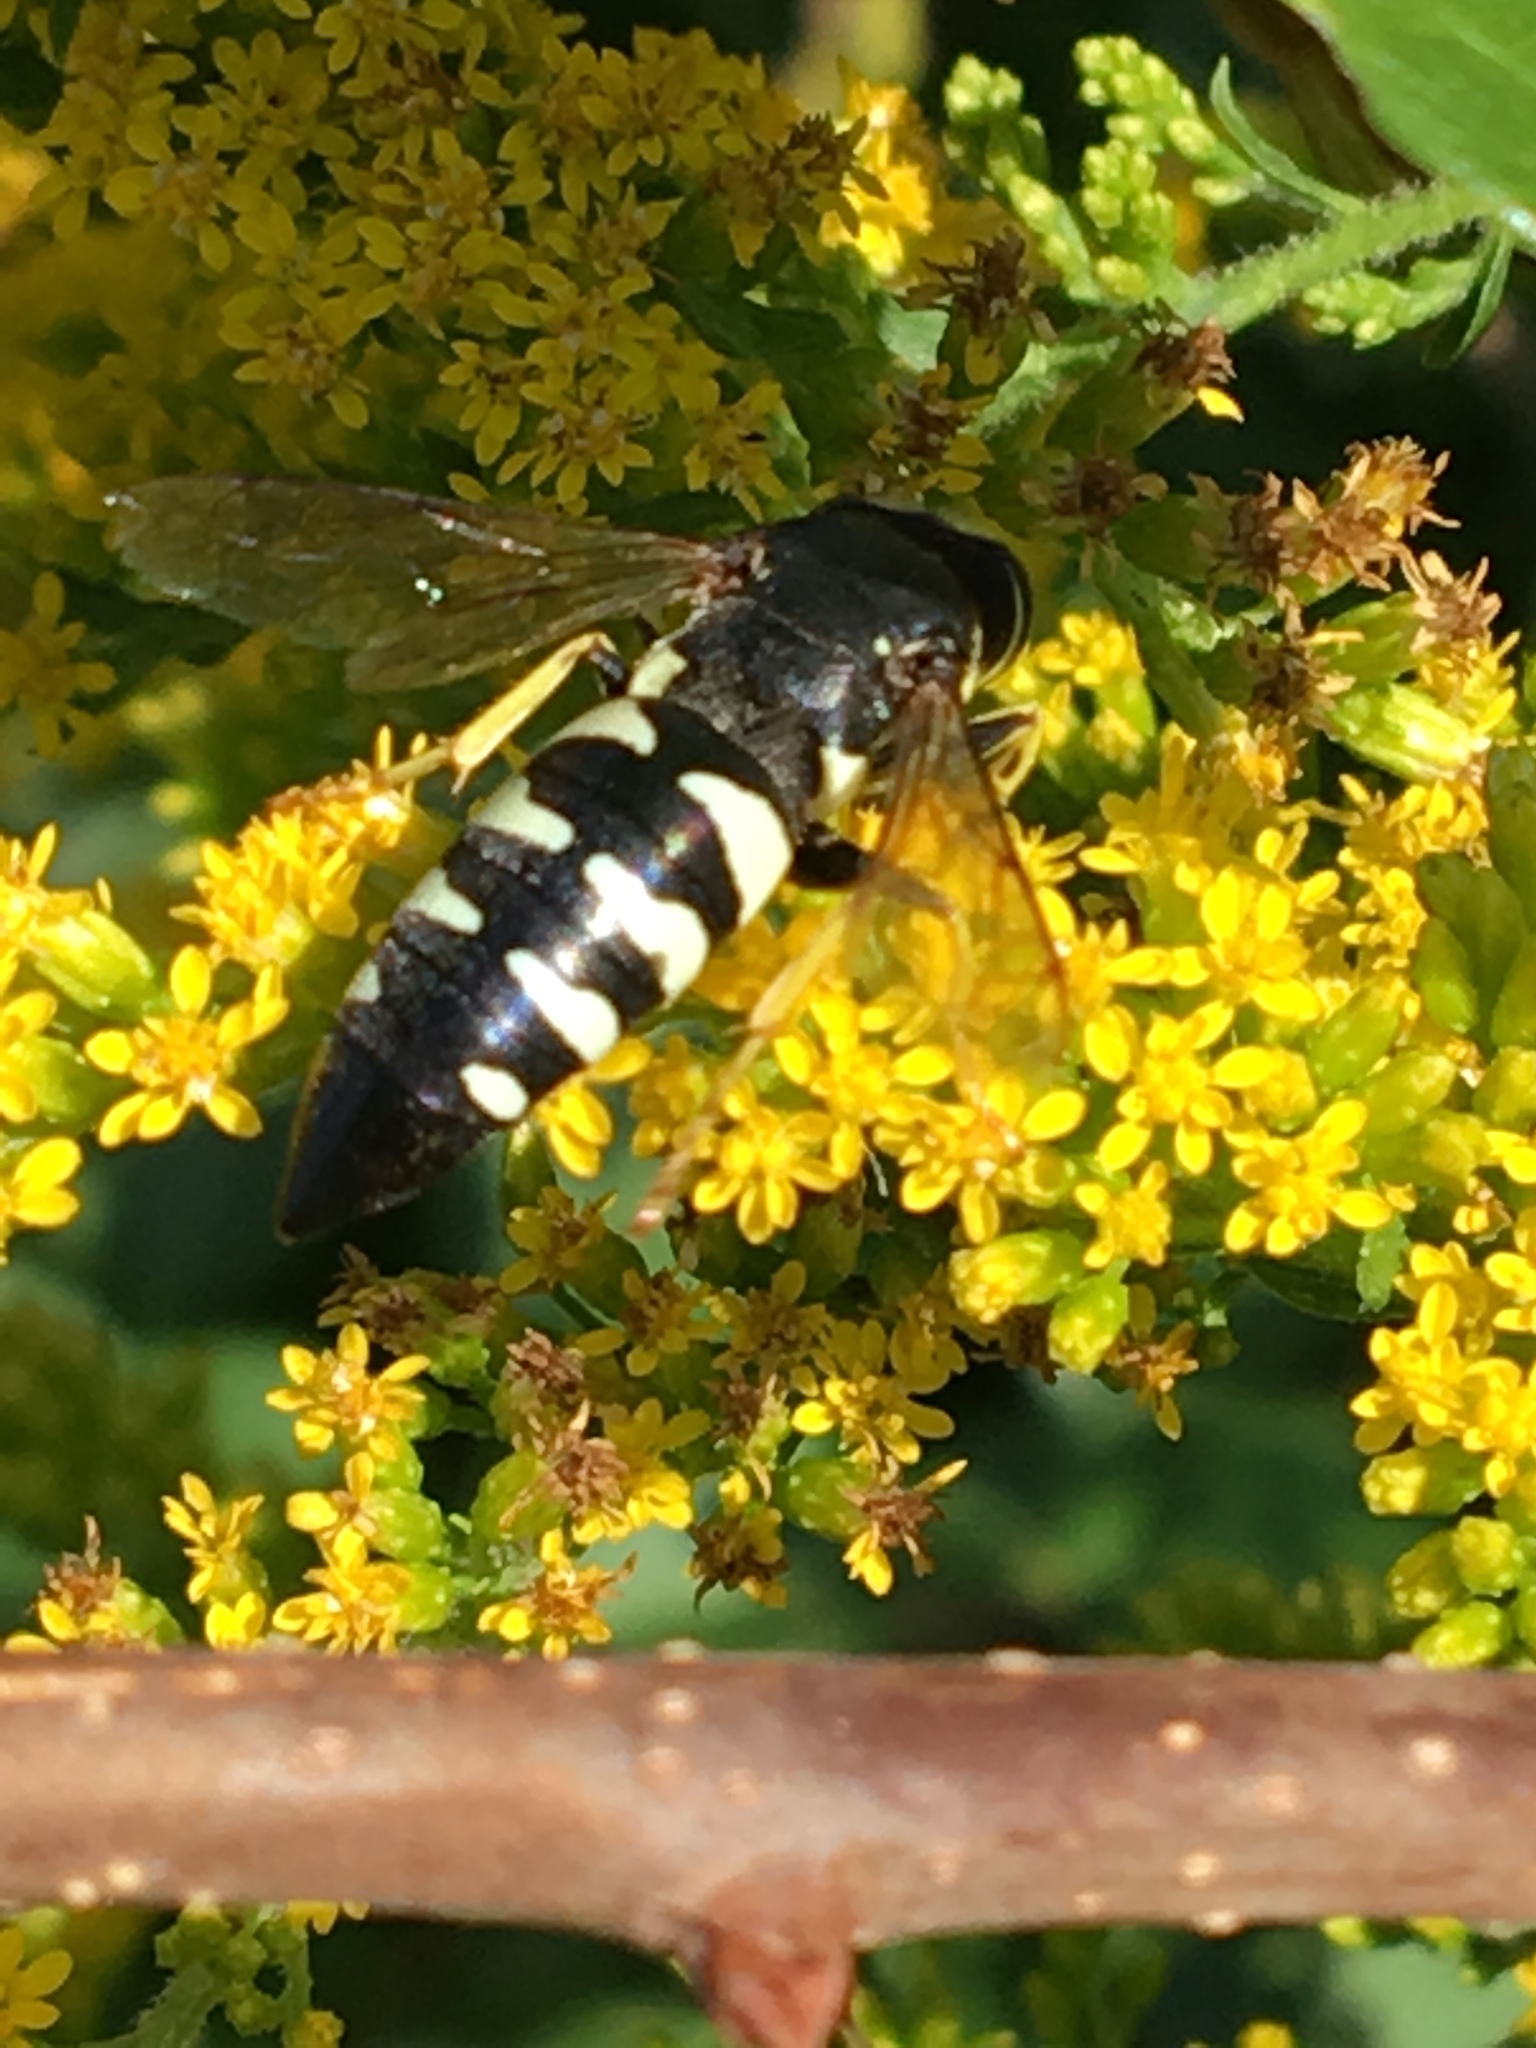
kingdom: Animalia
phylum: Arthropoda
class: Insecta
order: Hymenoptera
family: Crabronidae
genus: Bicyrtes
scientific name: Bicyrtes quadrifasciatus
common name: Four-banded stink bug hunter wasp
